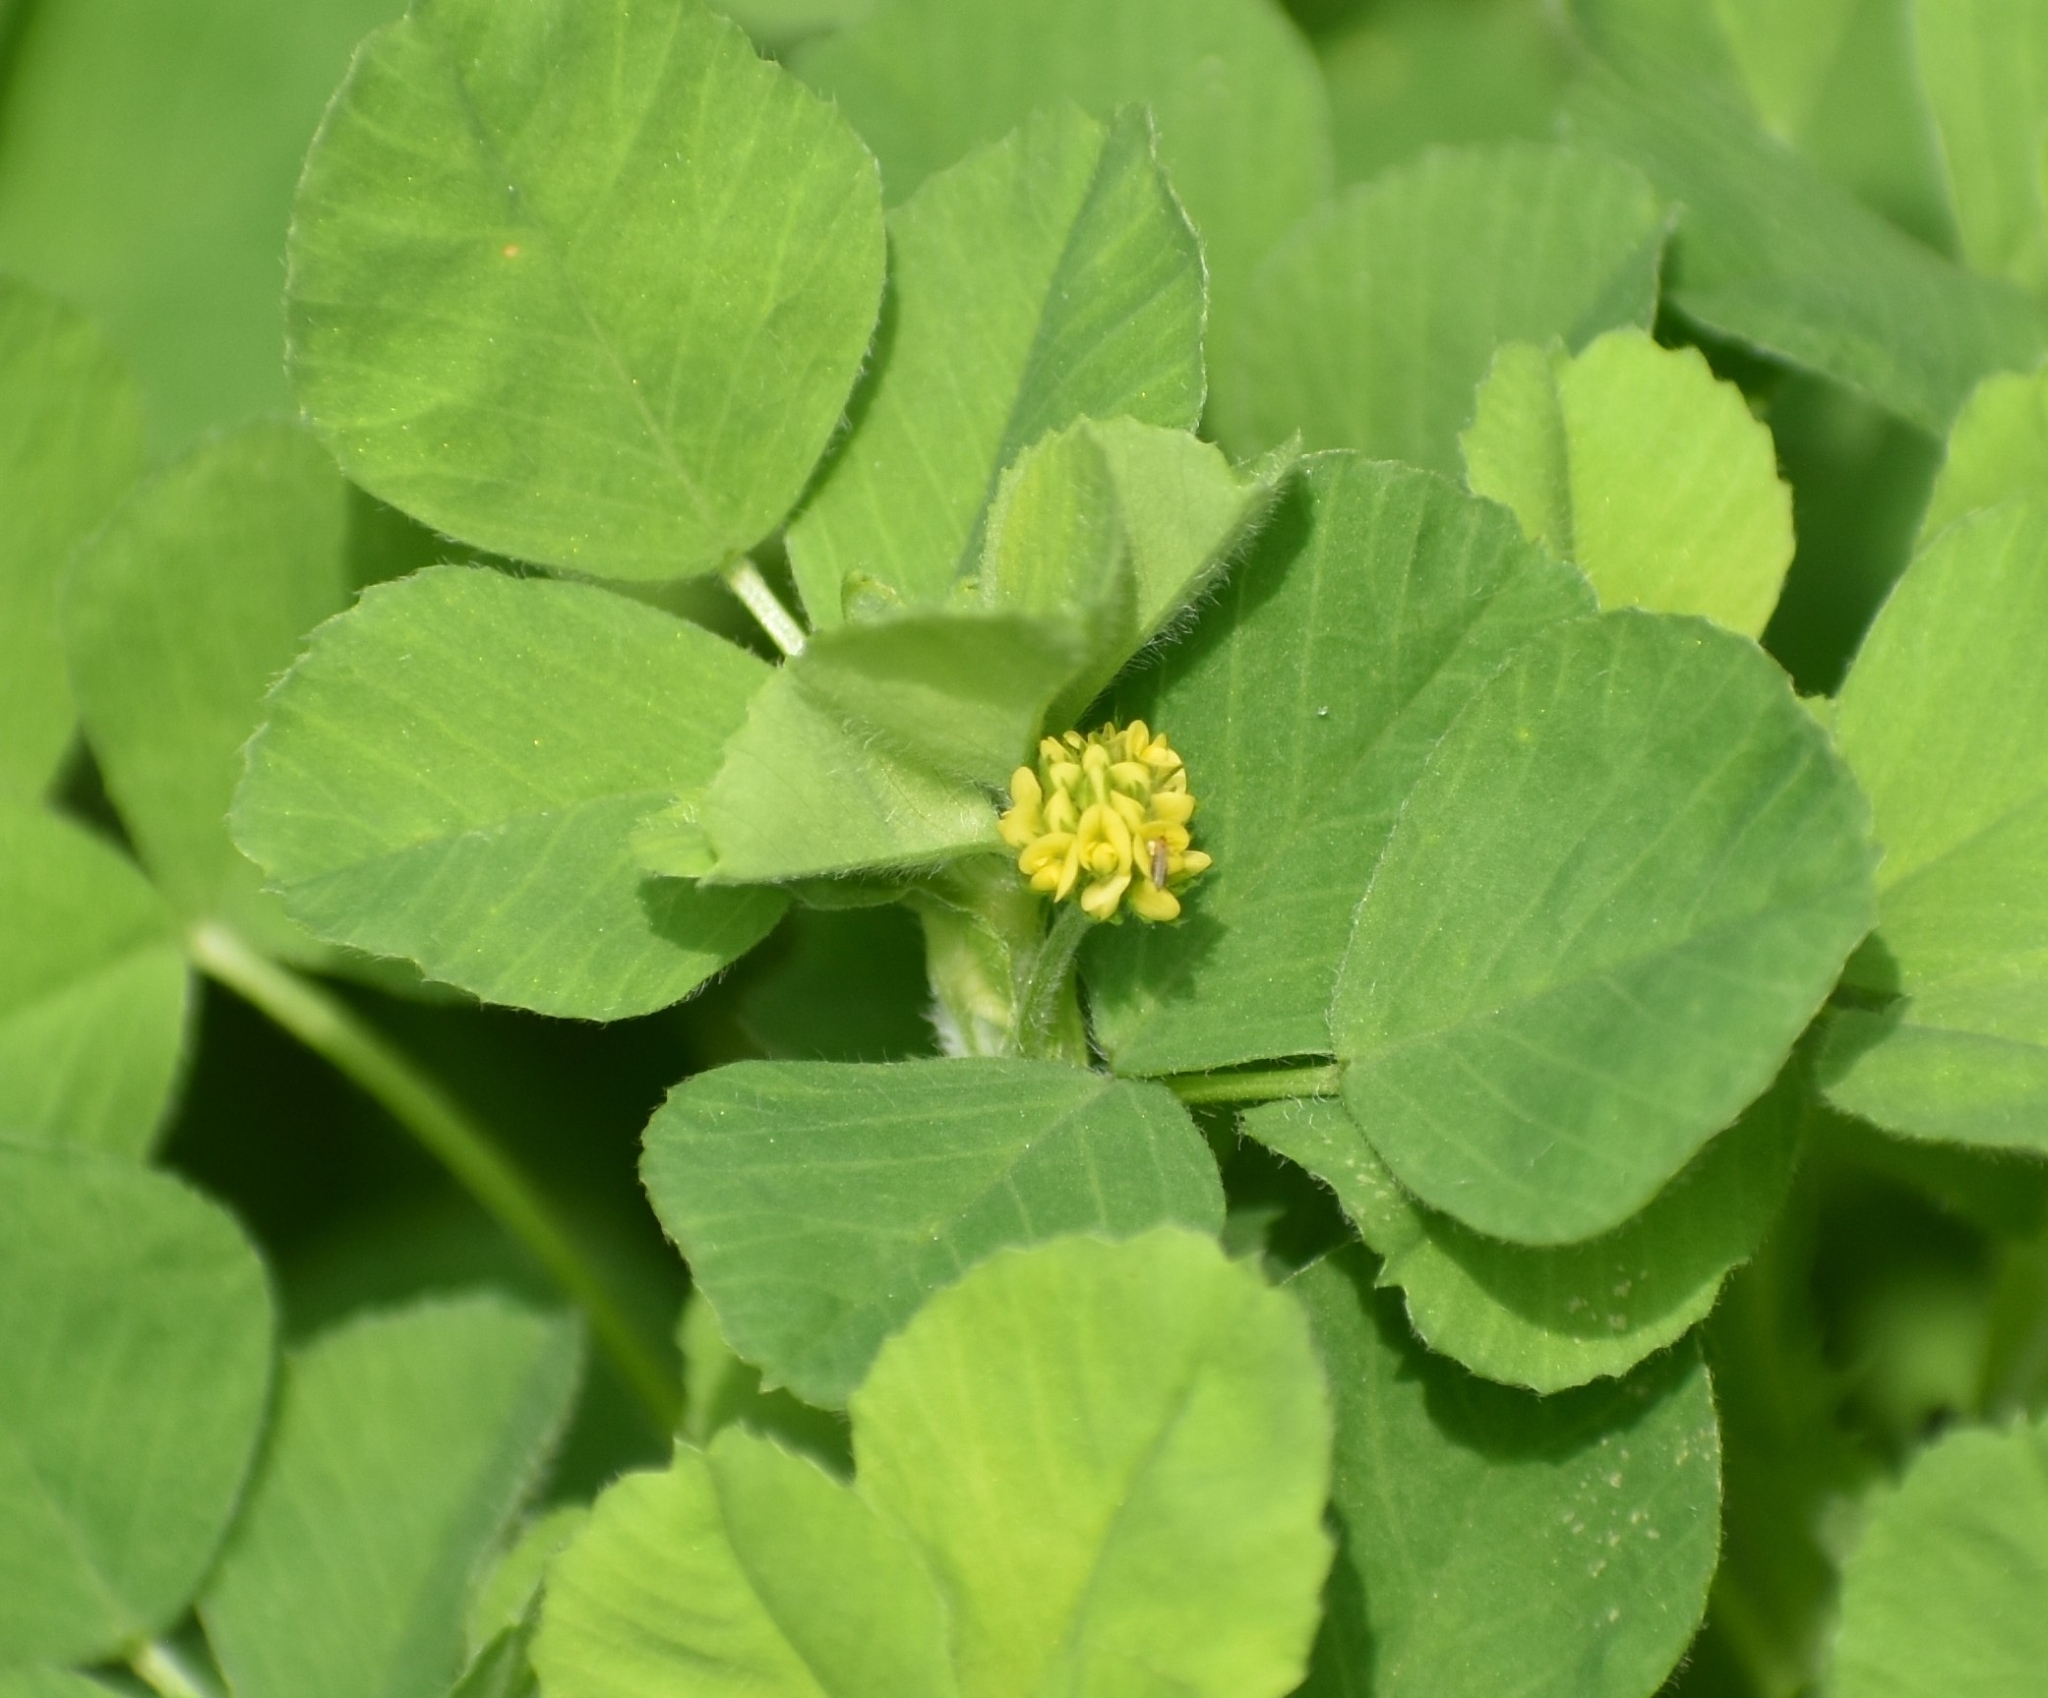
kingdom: Plantae
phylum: Tracheophyta
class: Magnoliopsida
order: Fabales
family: Fabaceae
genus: Medicago
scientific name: Medicago lupulina
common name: Black medick
